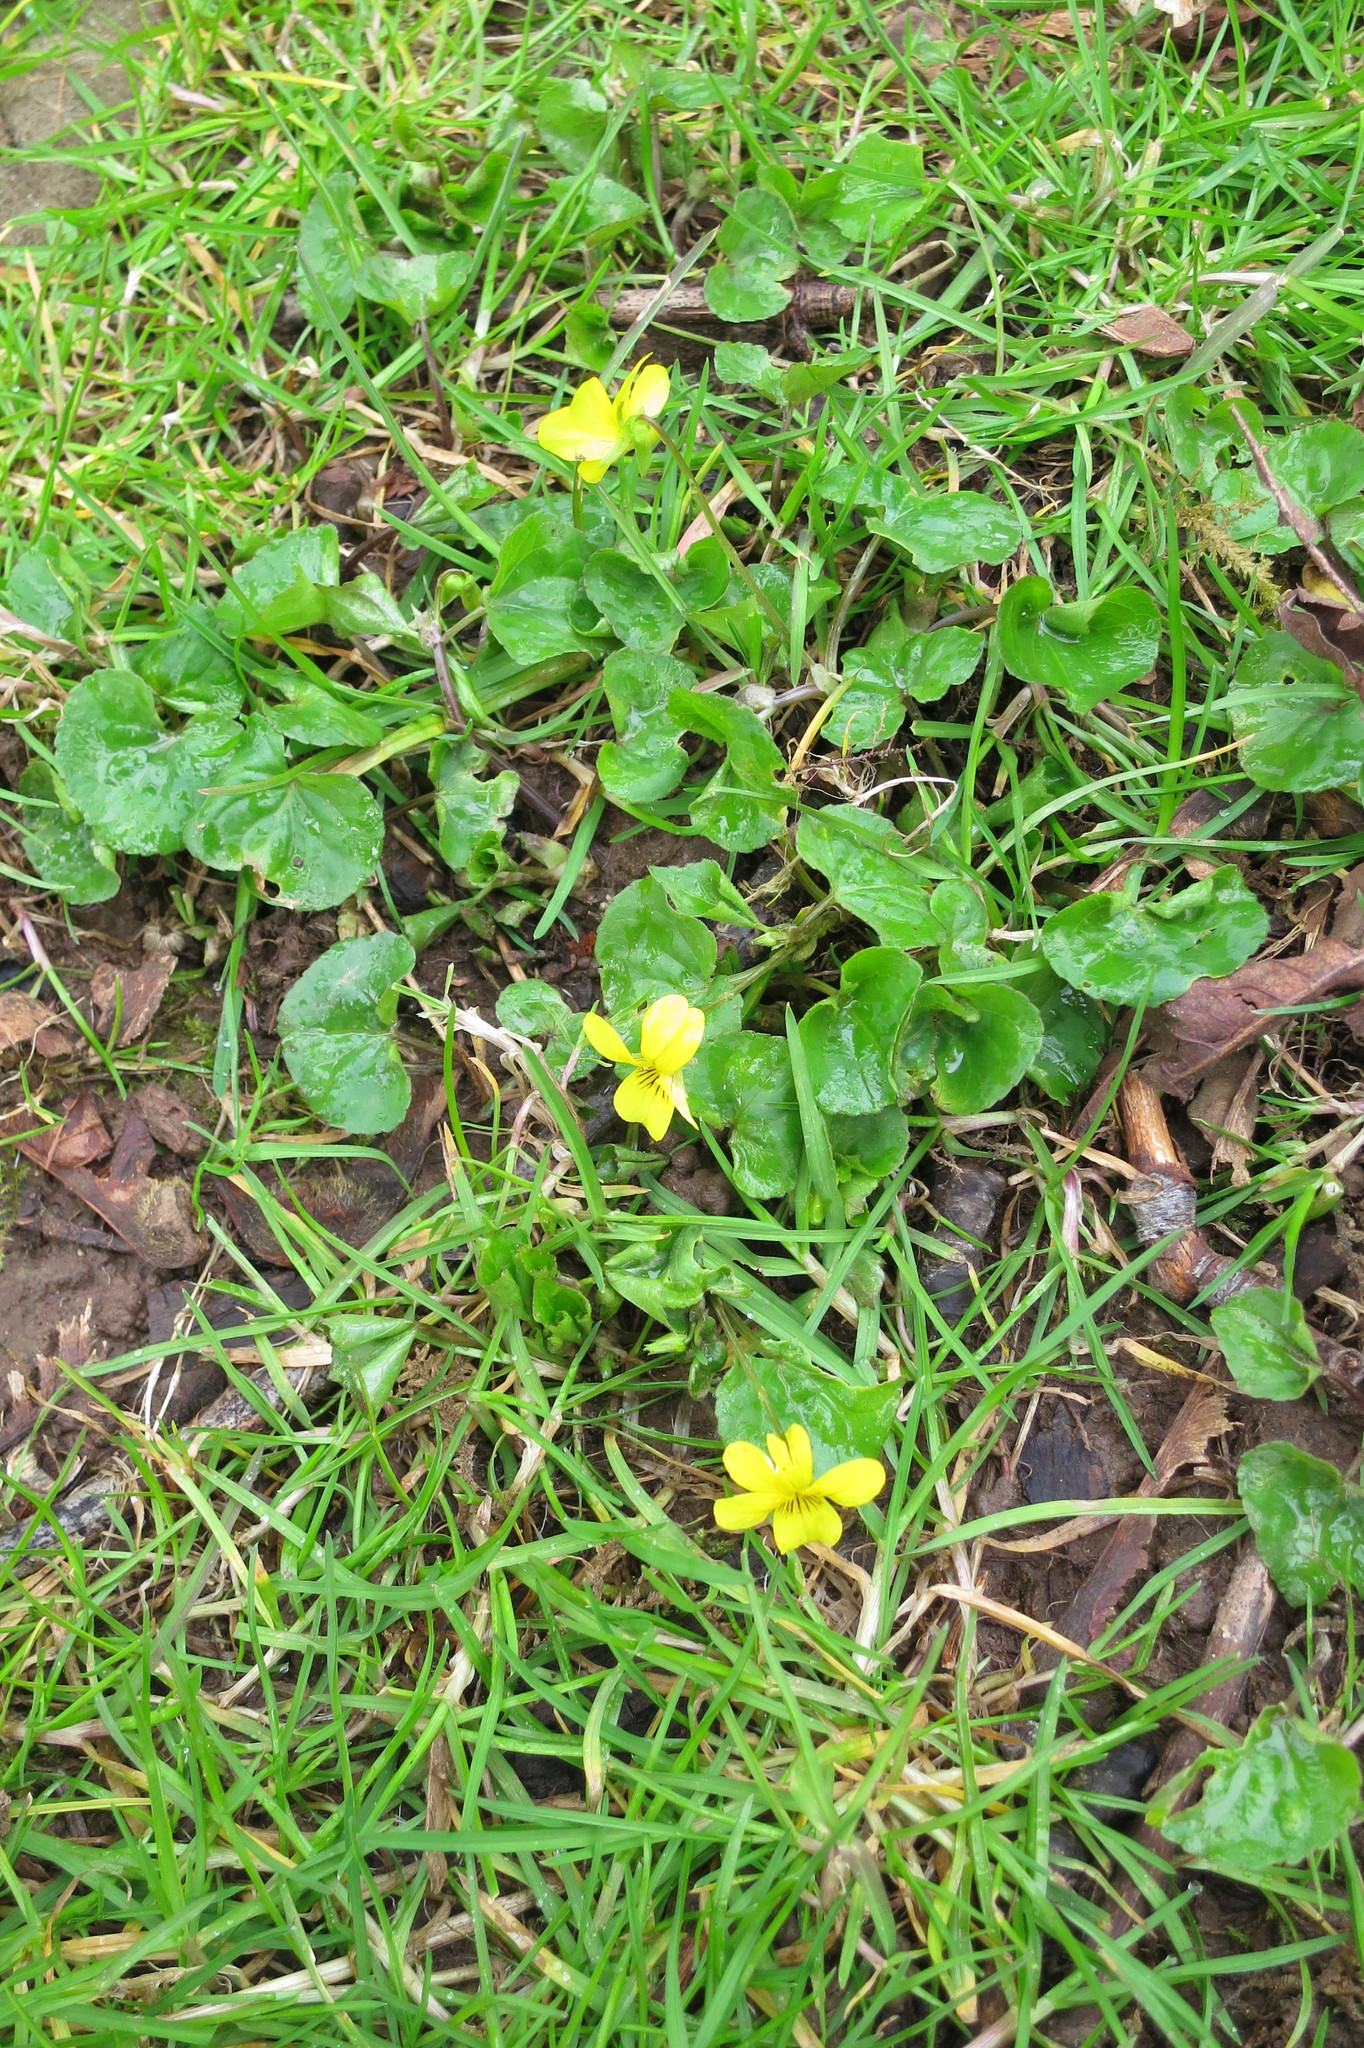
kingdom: Plantae
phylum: Tracheophyta
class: Magnoliopsida
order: Malpighiales
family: Violaceae
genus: Viola
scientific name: Viola glabella
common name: Stream violet
